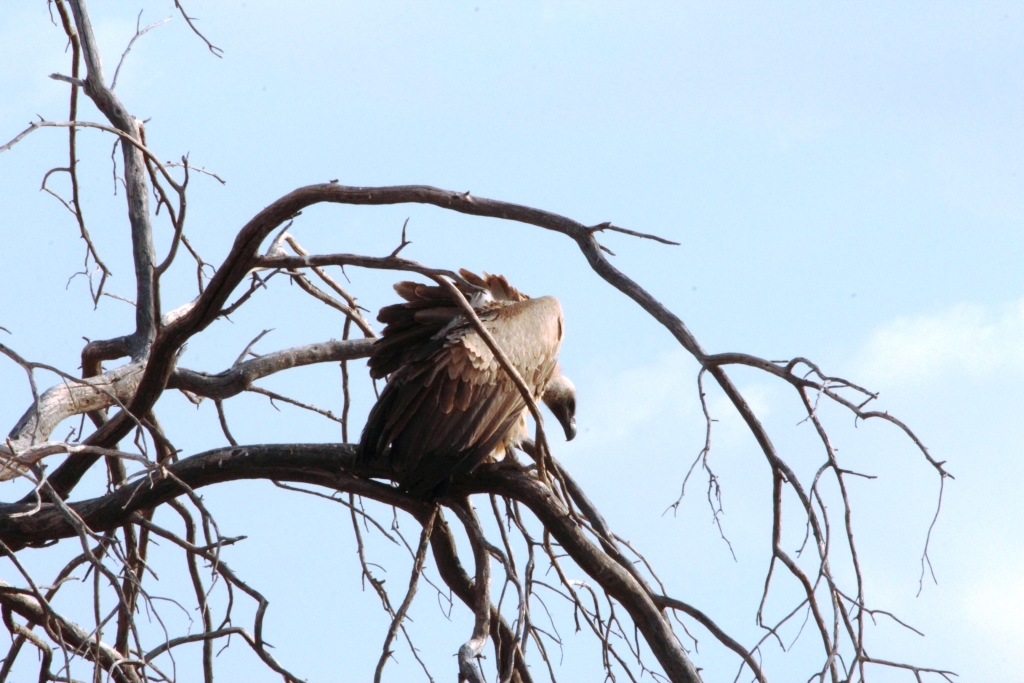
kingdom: Animalia
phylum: Chordata
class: Aves
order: Accipitriformes
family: Accipitridae
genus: Gyps
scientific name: Gyps africanus
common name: White-backed vulture
